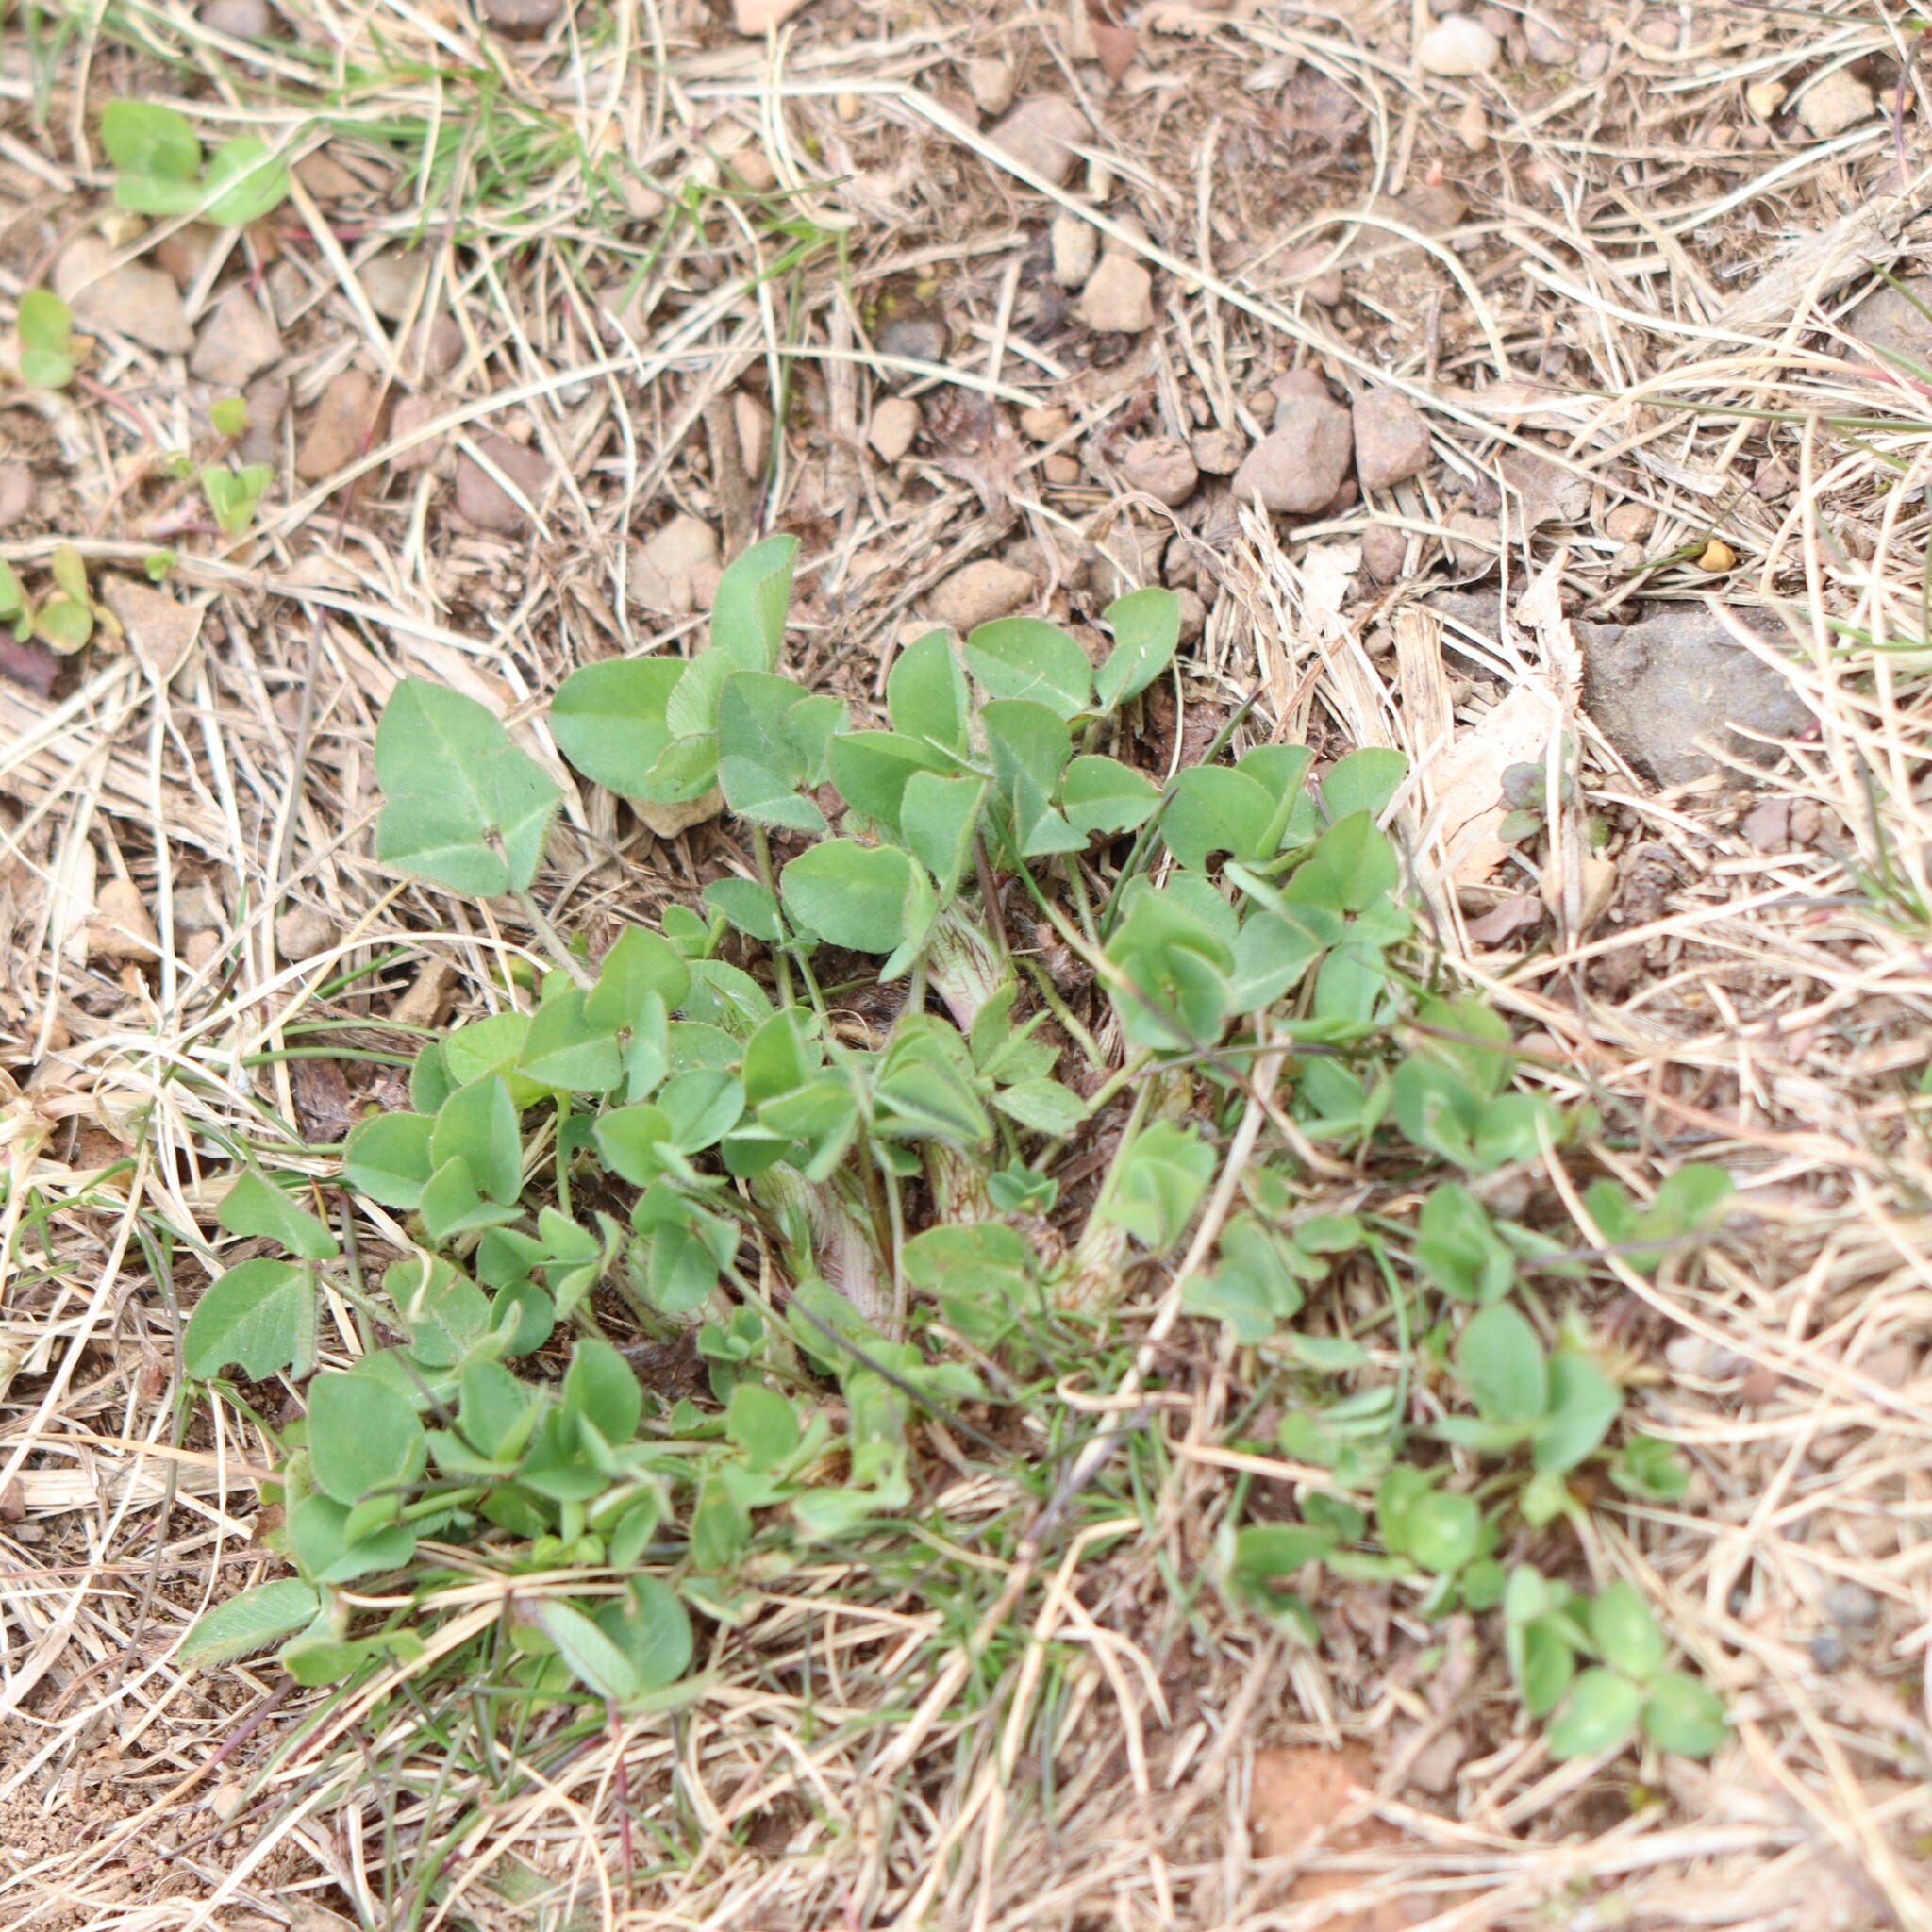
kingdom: Plantae
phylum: Tracheophyta
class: Magnoliopsida
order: Fabales
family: Fabaceae
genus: Trifolium
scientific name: Trifolium pratense
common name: Red clover
